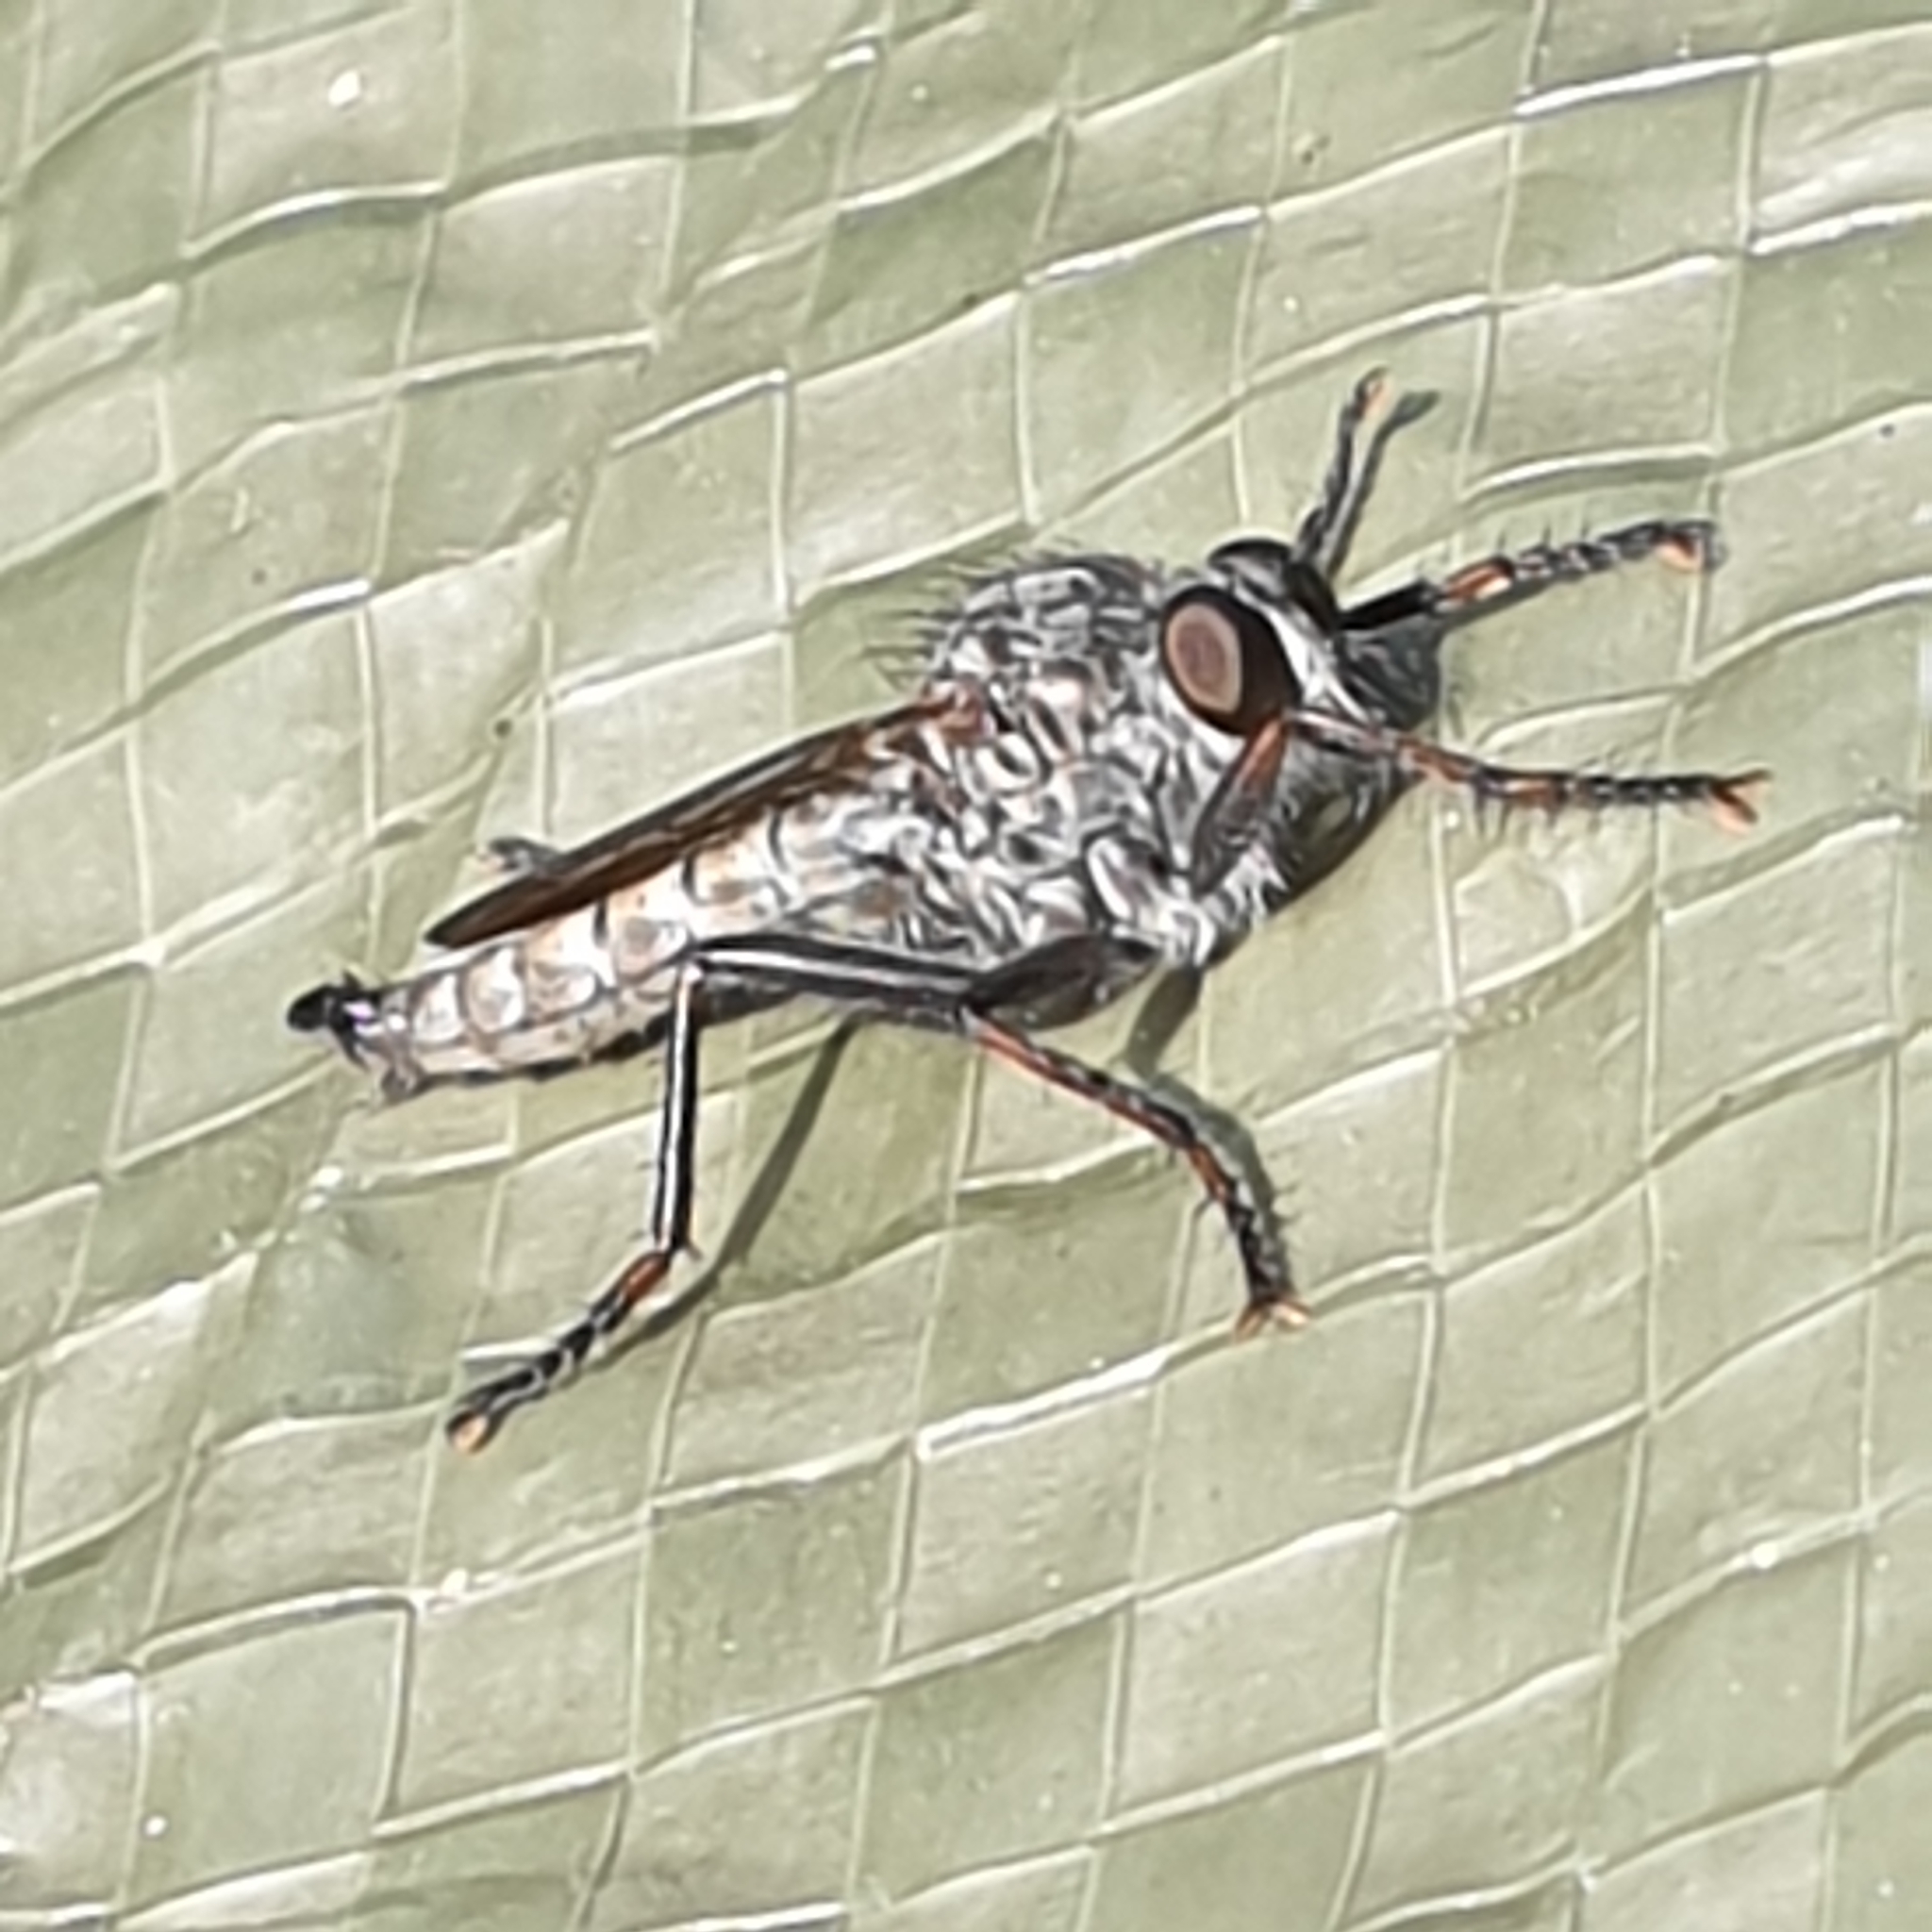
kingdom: Animalia
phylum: Arthropoda
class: Insecta
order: Diptera
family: Asilidae
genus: Machimus
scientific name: Machimus atricapillus
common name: Kite-tailed robberfly
